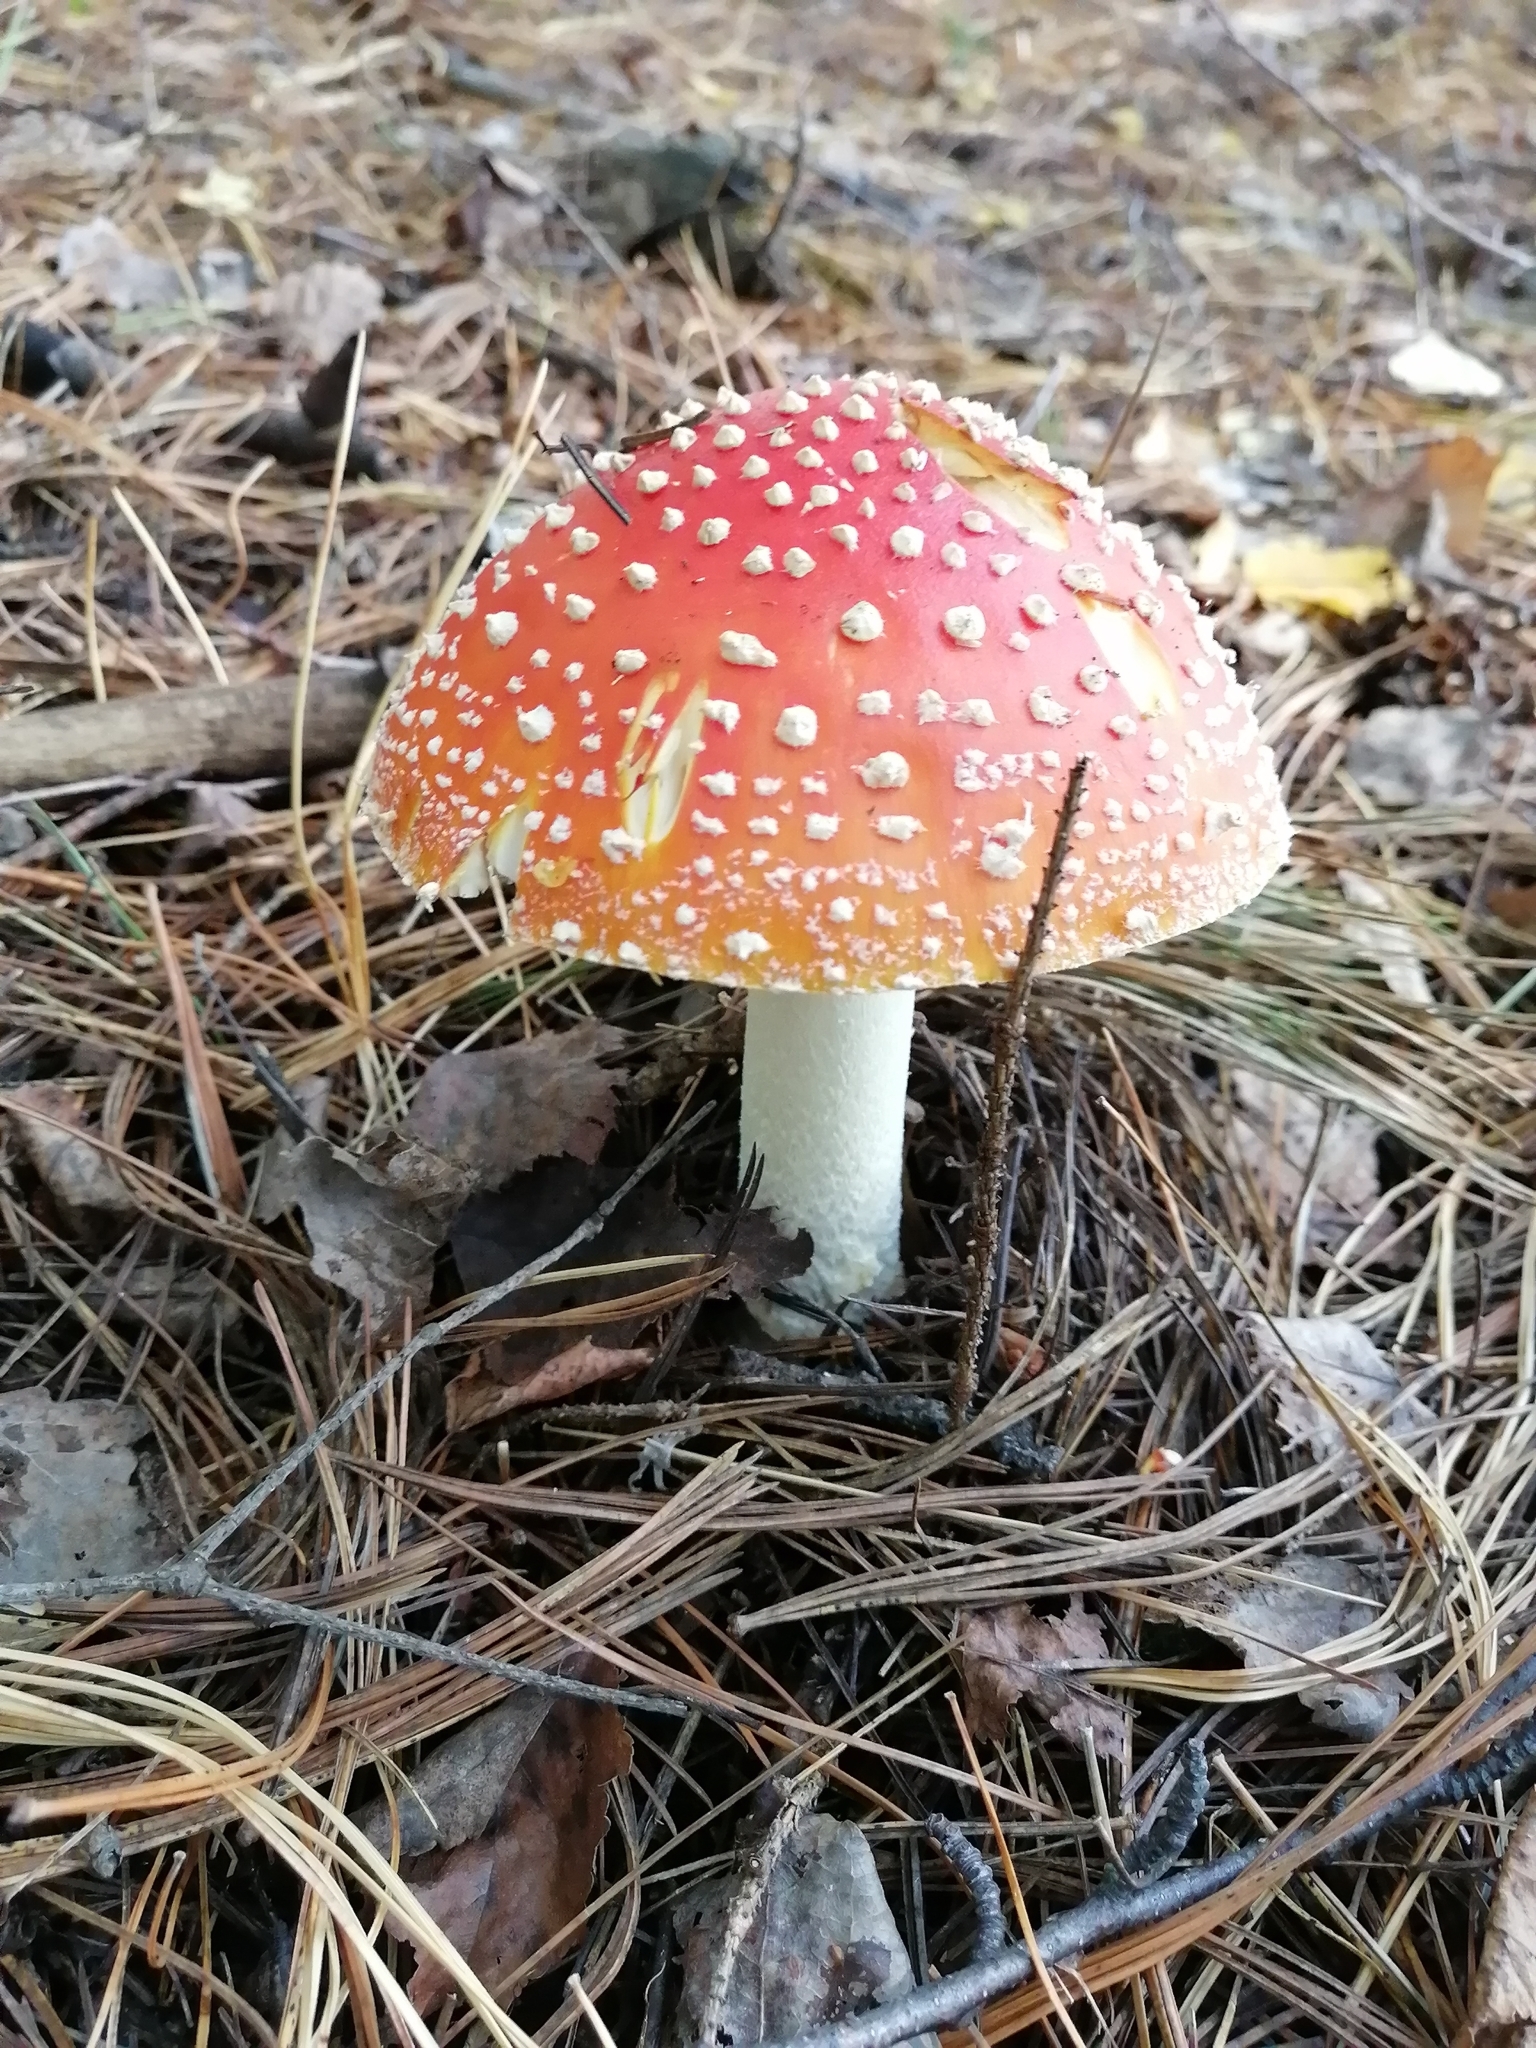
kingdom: Fungi
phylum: Basidiomycota
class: Agaricomycetes
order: Agaricales
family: Amanitaceae
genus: Amanita
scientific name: Amanita muscaria
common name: Fly agaric
